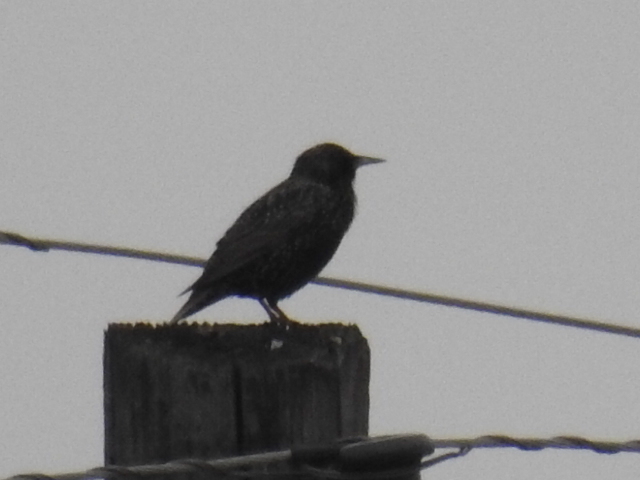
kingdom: Animalia
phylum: Chordata
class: Aves
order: Passeriformes
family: Sturnidae
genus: Sturnus
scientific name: Sturnus vulgaris
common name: Common starling
